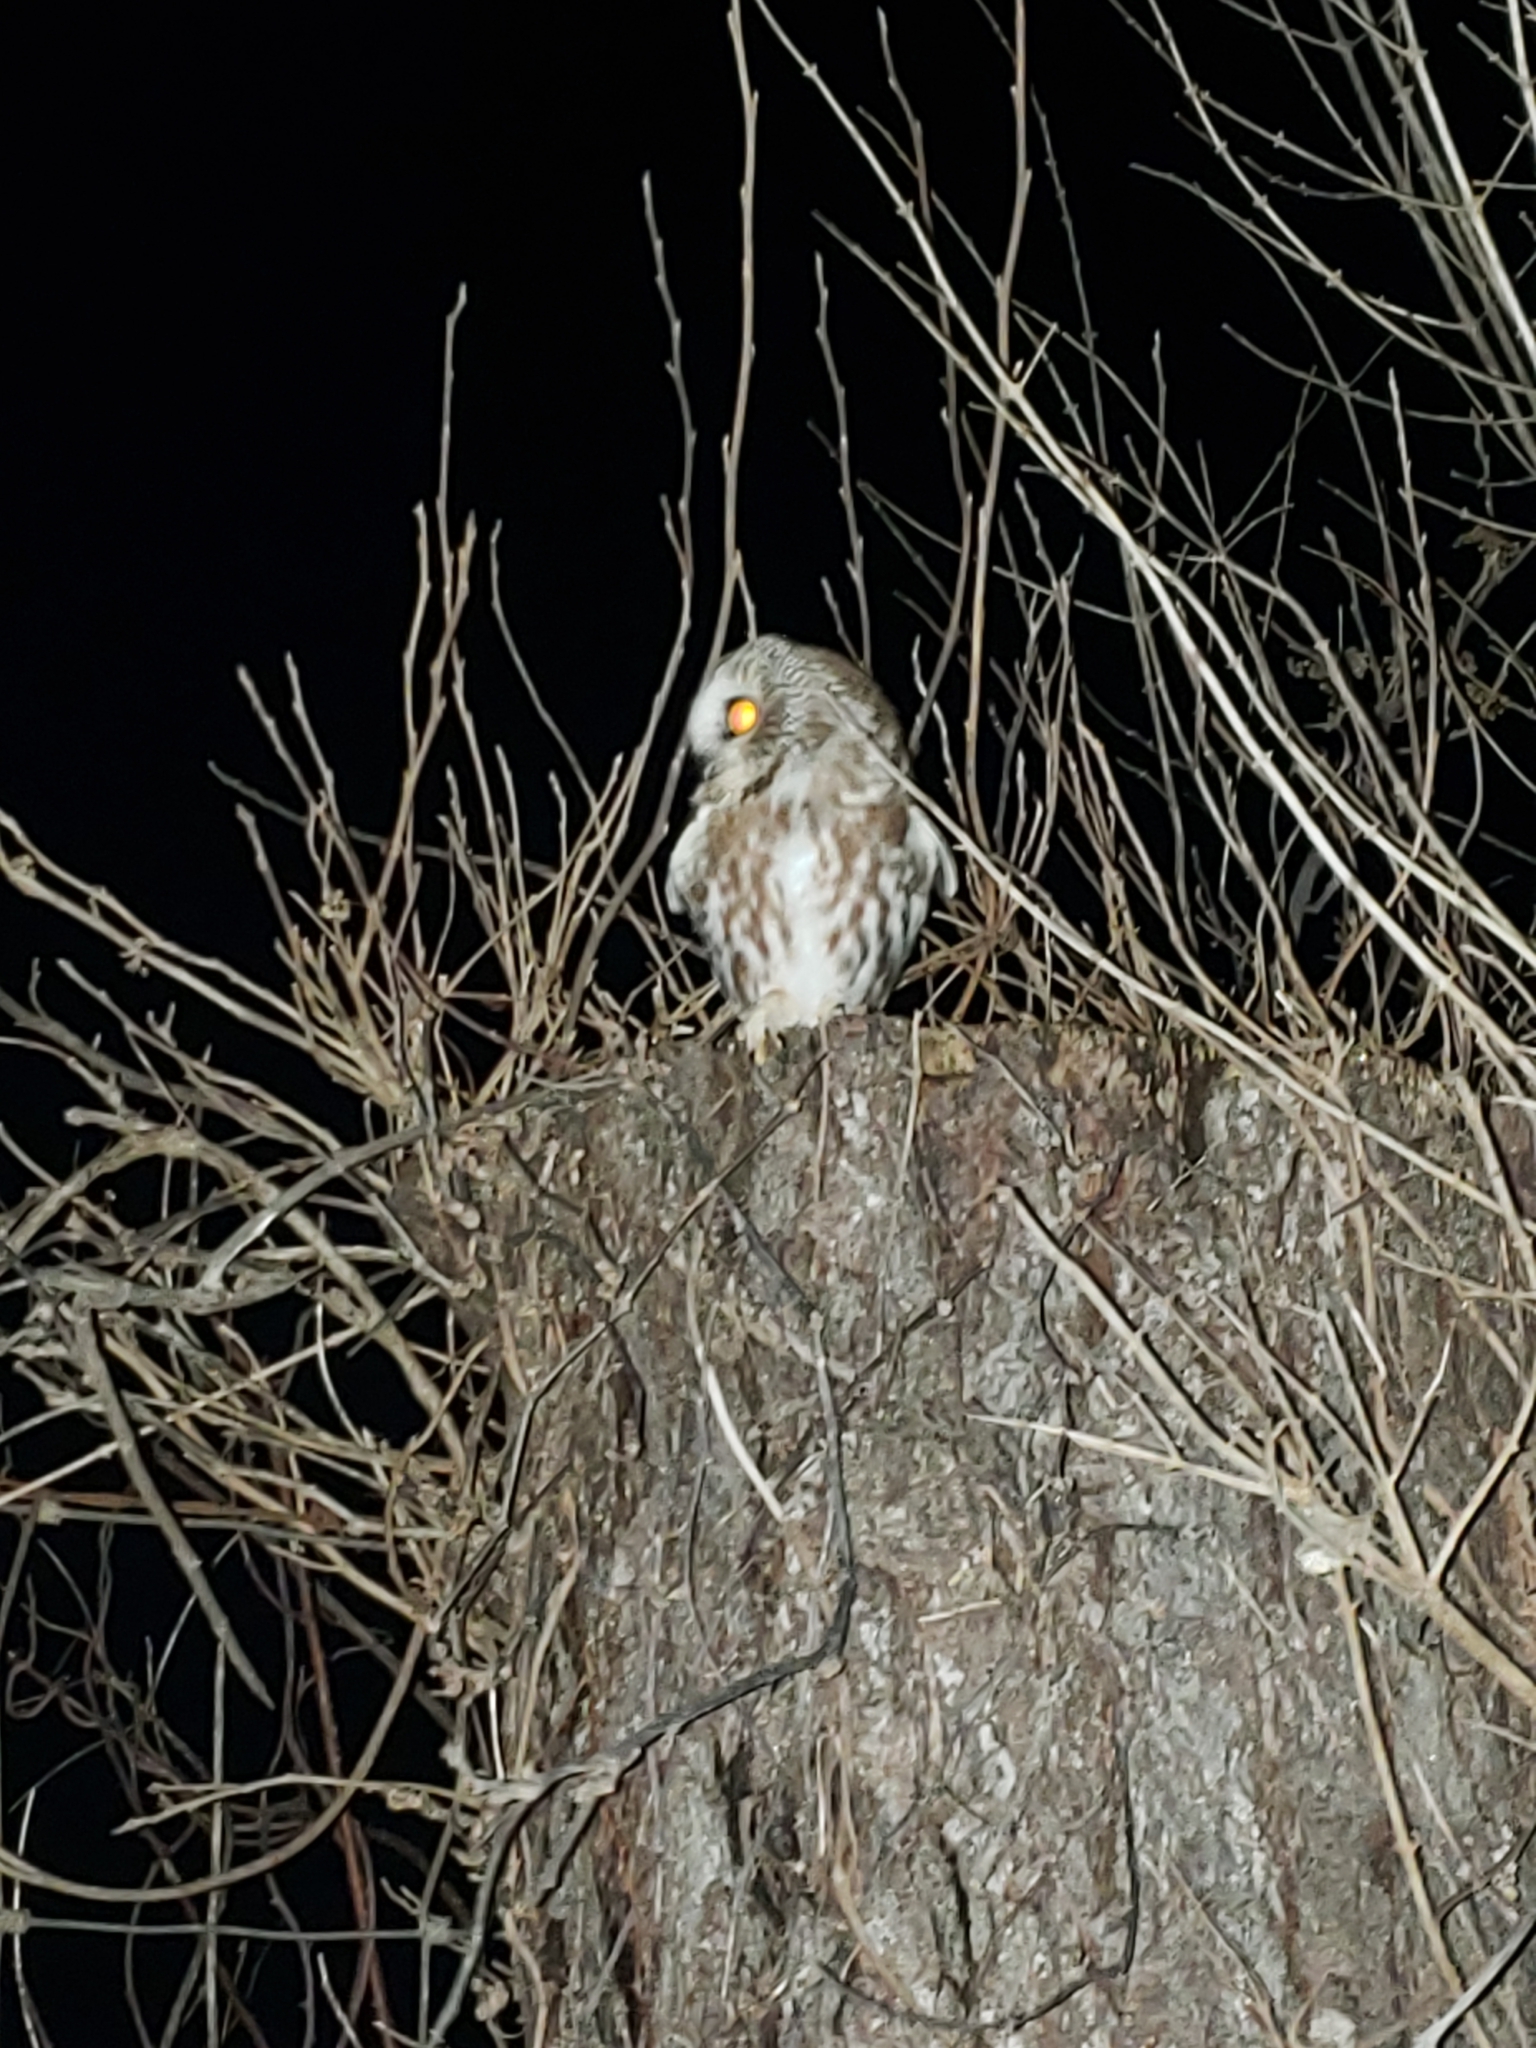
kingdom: Animalia
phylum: Chordata
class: Aves
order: Strigiformes
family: Strigidae
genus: Aegolius
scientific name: Aegolius acadicus
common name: Northern saw-whet owl
